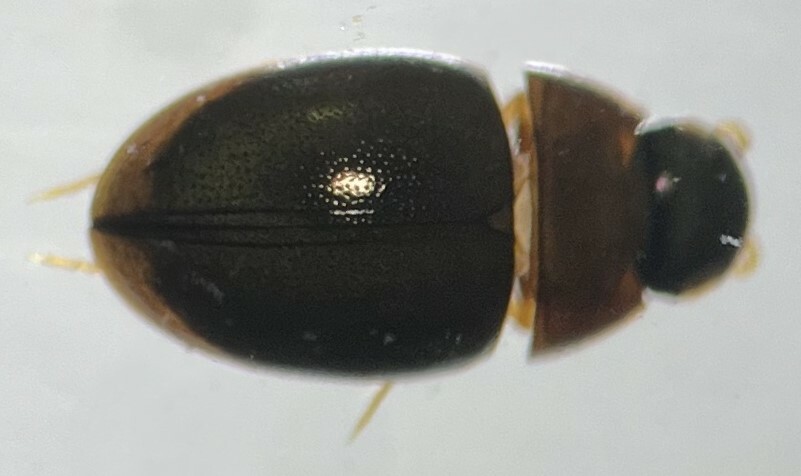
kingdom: Animalia
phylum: Arthropoda
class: Insecta
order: Coleoptera
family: Hydrophilidae
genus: Paracymus
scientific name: Paracymus lodingi
